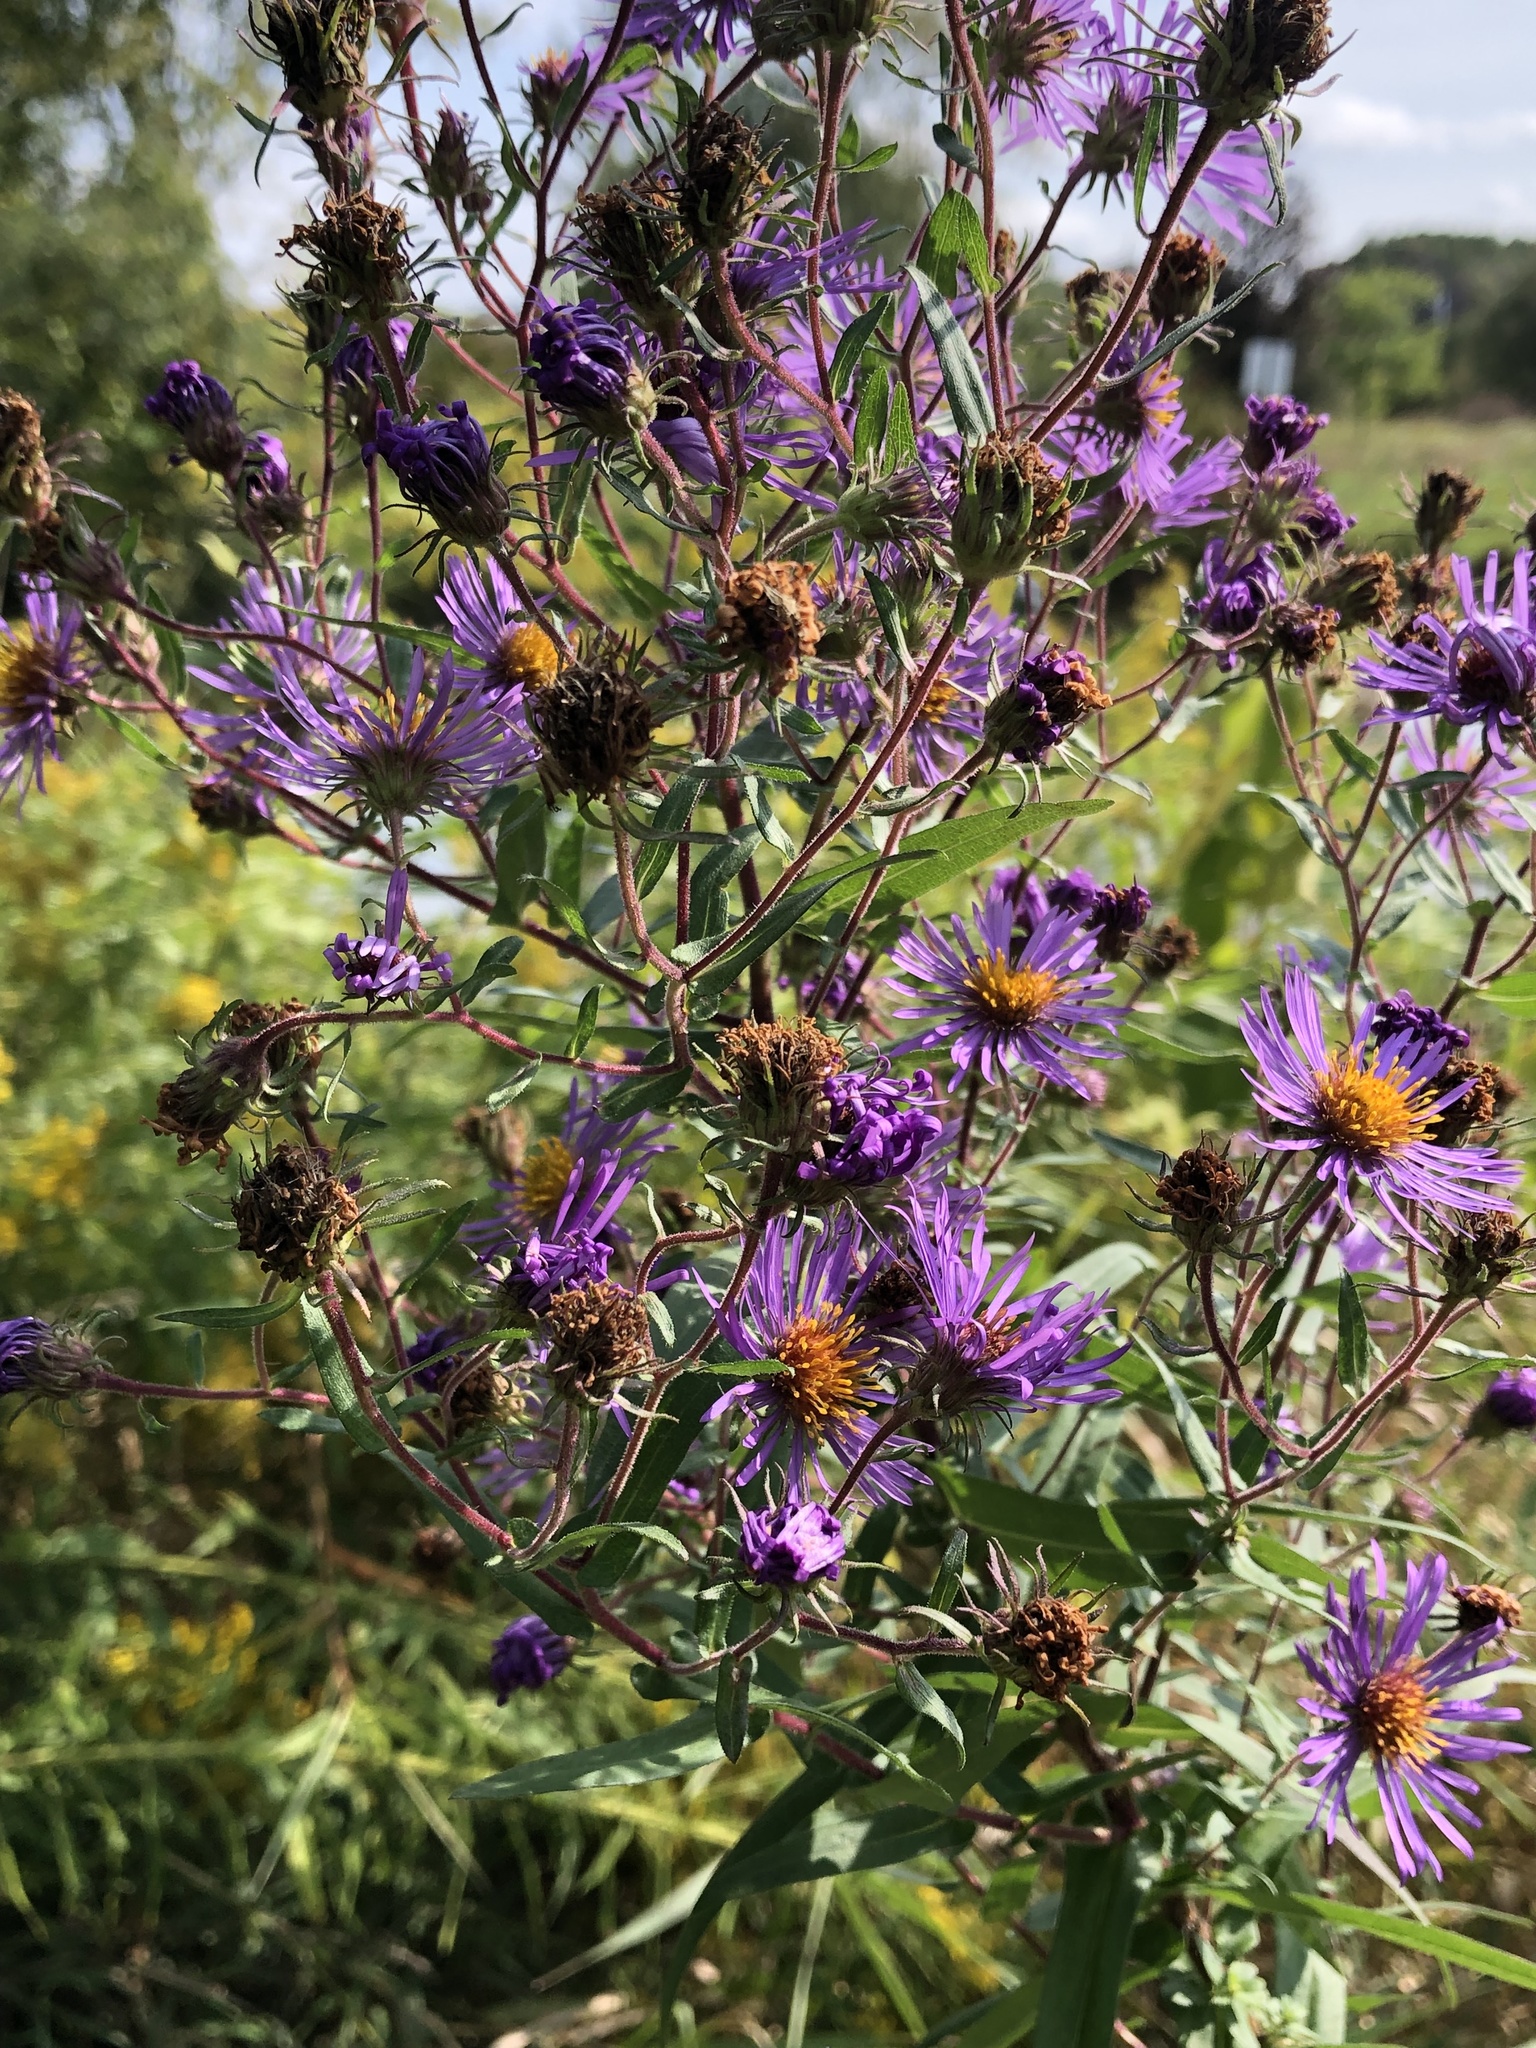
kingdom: Plantae
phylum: Tracheophyta
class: Magnoliopsida
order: Asterales
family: Asteraceae
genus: Symphyotrichum
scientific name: Symphyotrichum novae-angliae
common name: Michaelmas daisy
